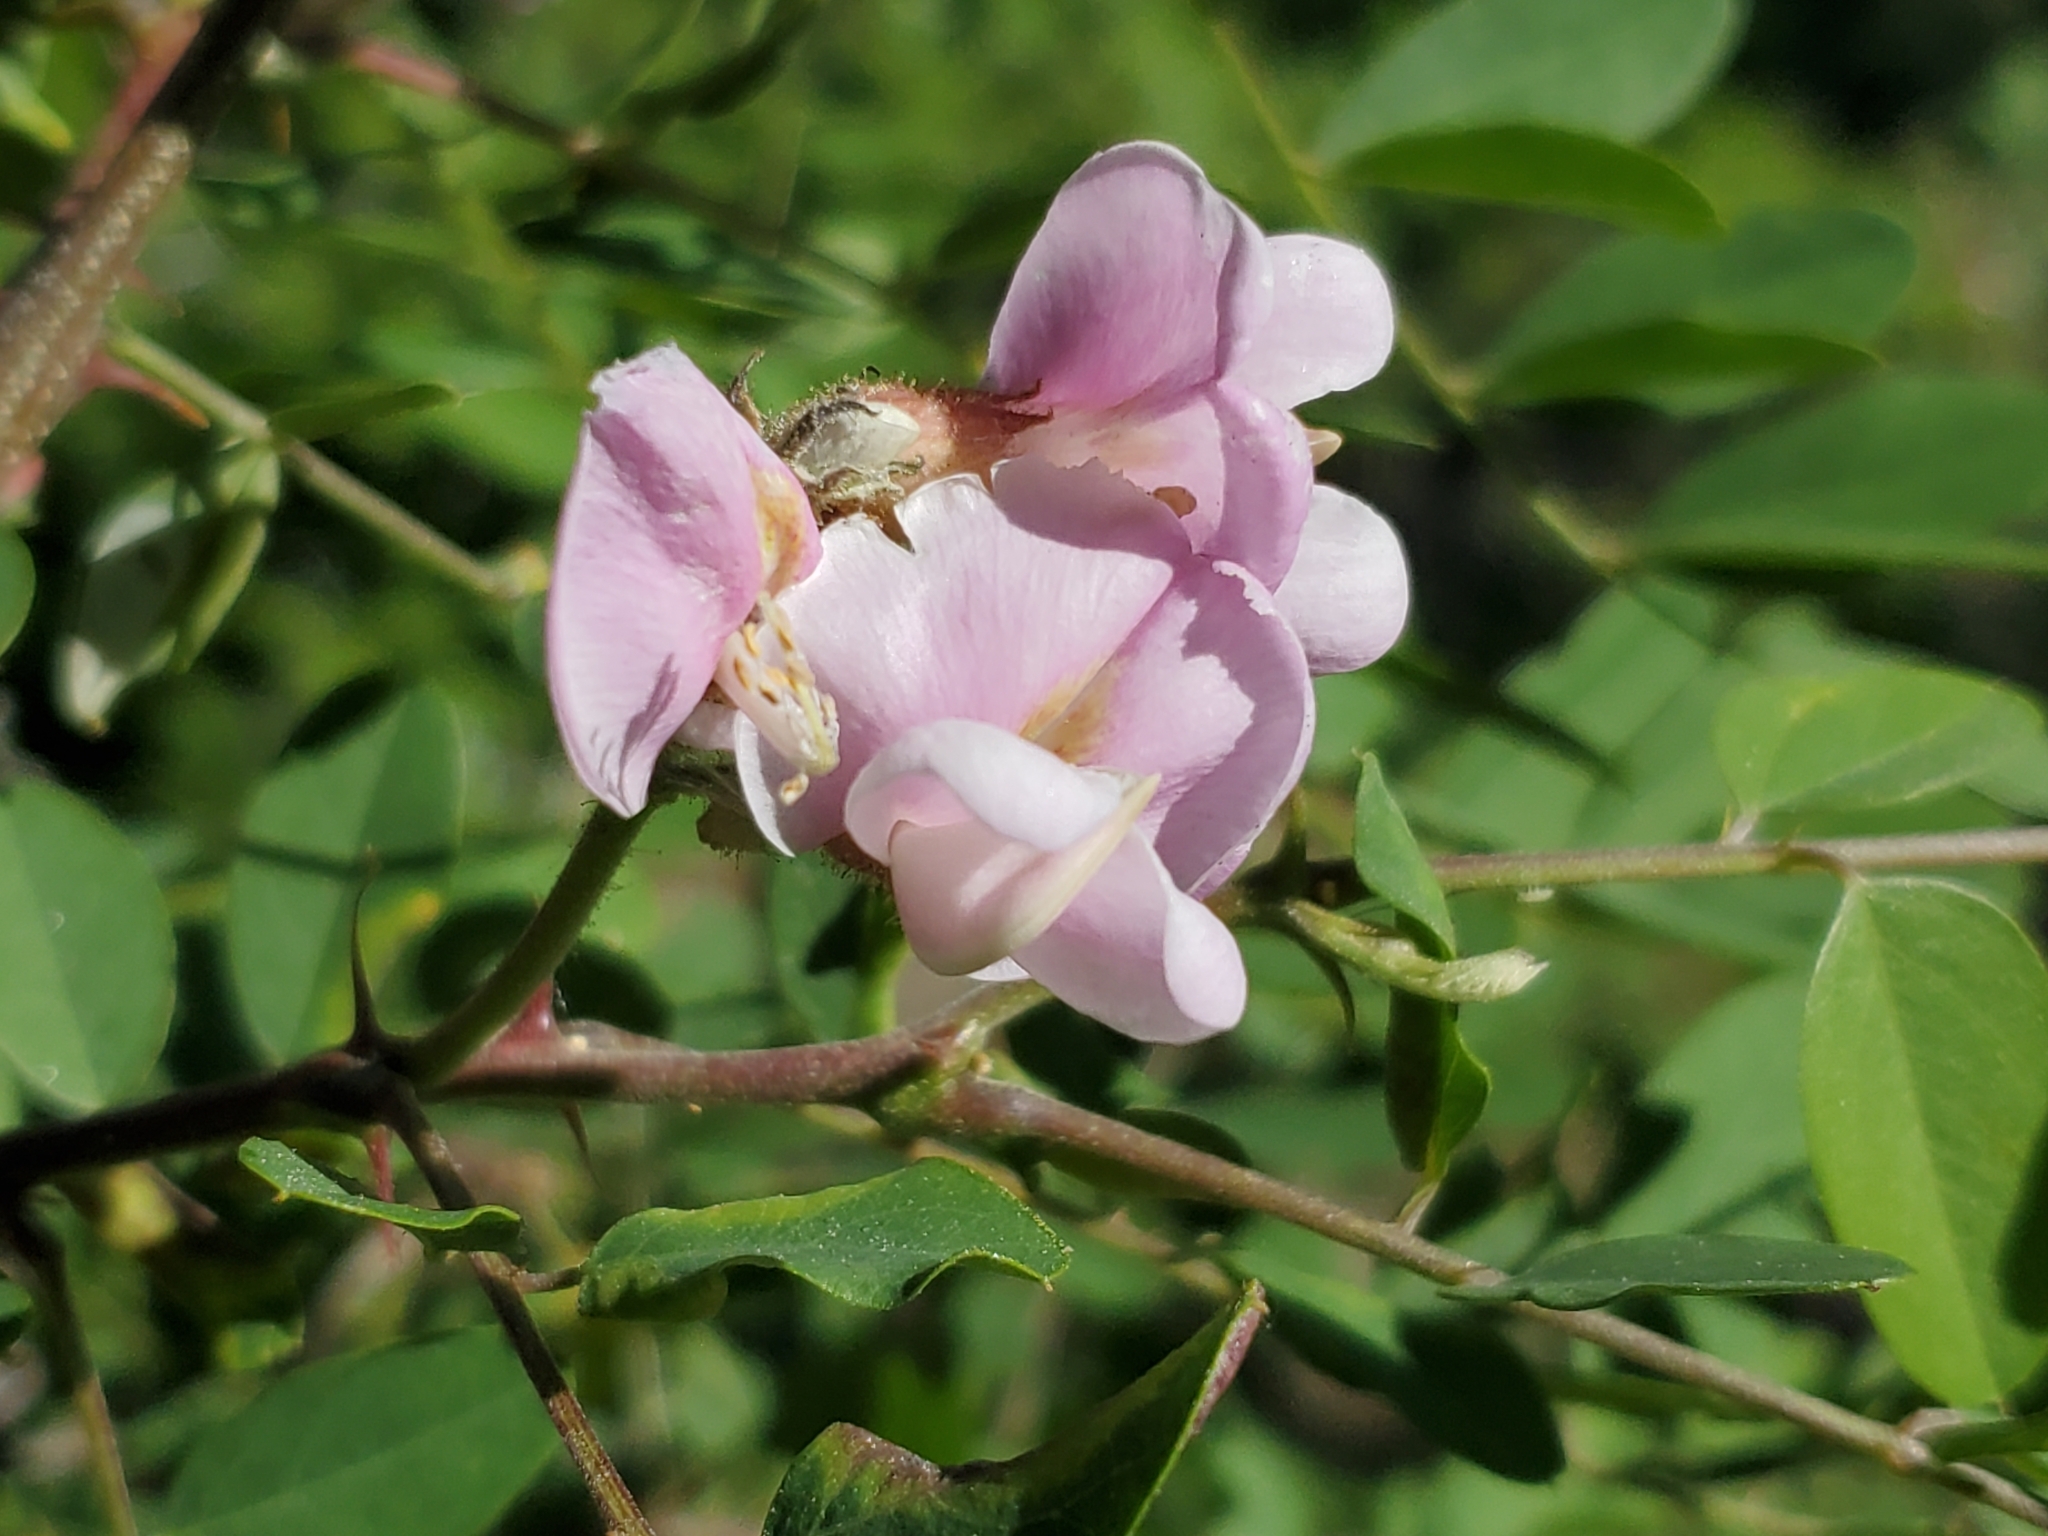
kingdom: Plantae
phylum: Tracheophyta
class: Magnoliopsida
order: Fabales
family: Fabaceae
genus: Robinia
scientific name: Robinia neomexicana
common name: New mexico locust
